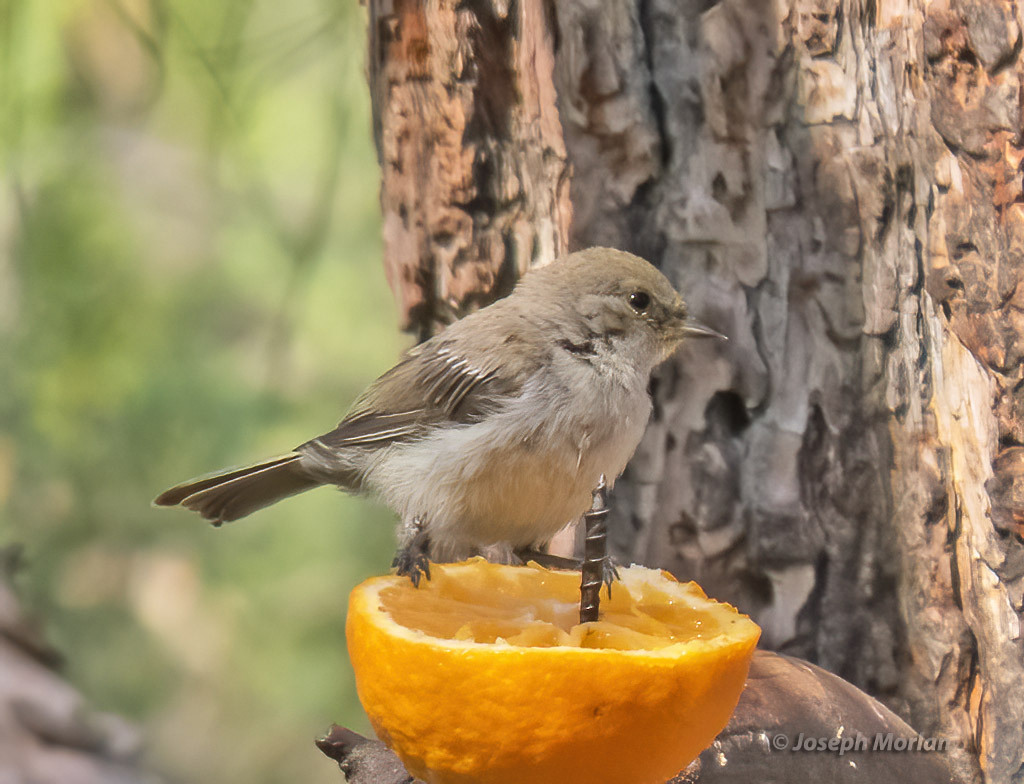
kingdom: Animalia
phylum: Chordata
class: Aves
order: Passeriformes
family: Remizidae
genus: Auriparus
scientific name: Auriparus flaviceps
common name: Verdin
